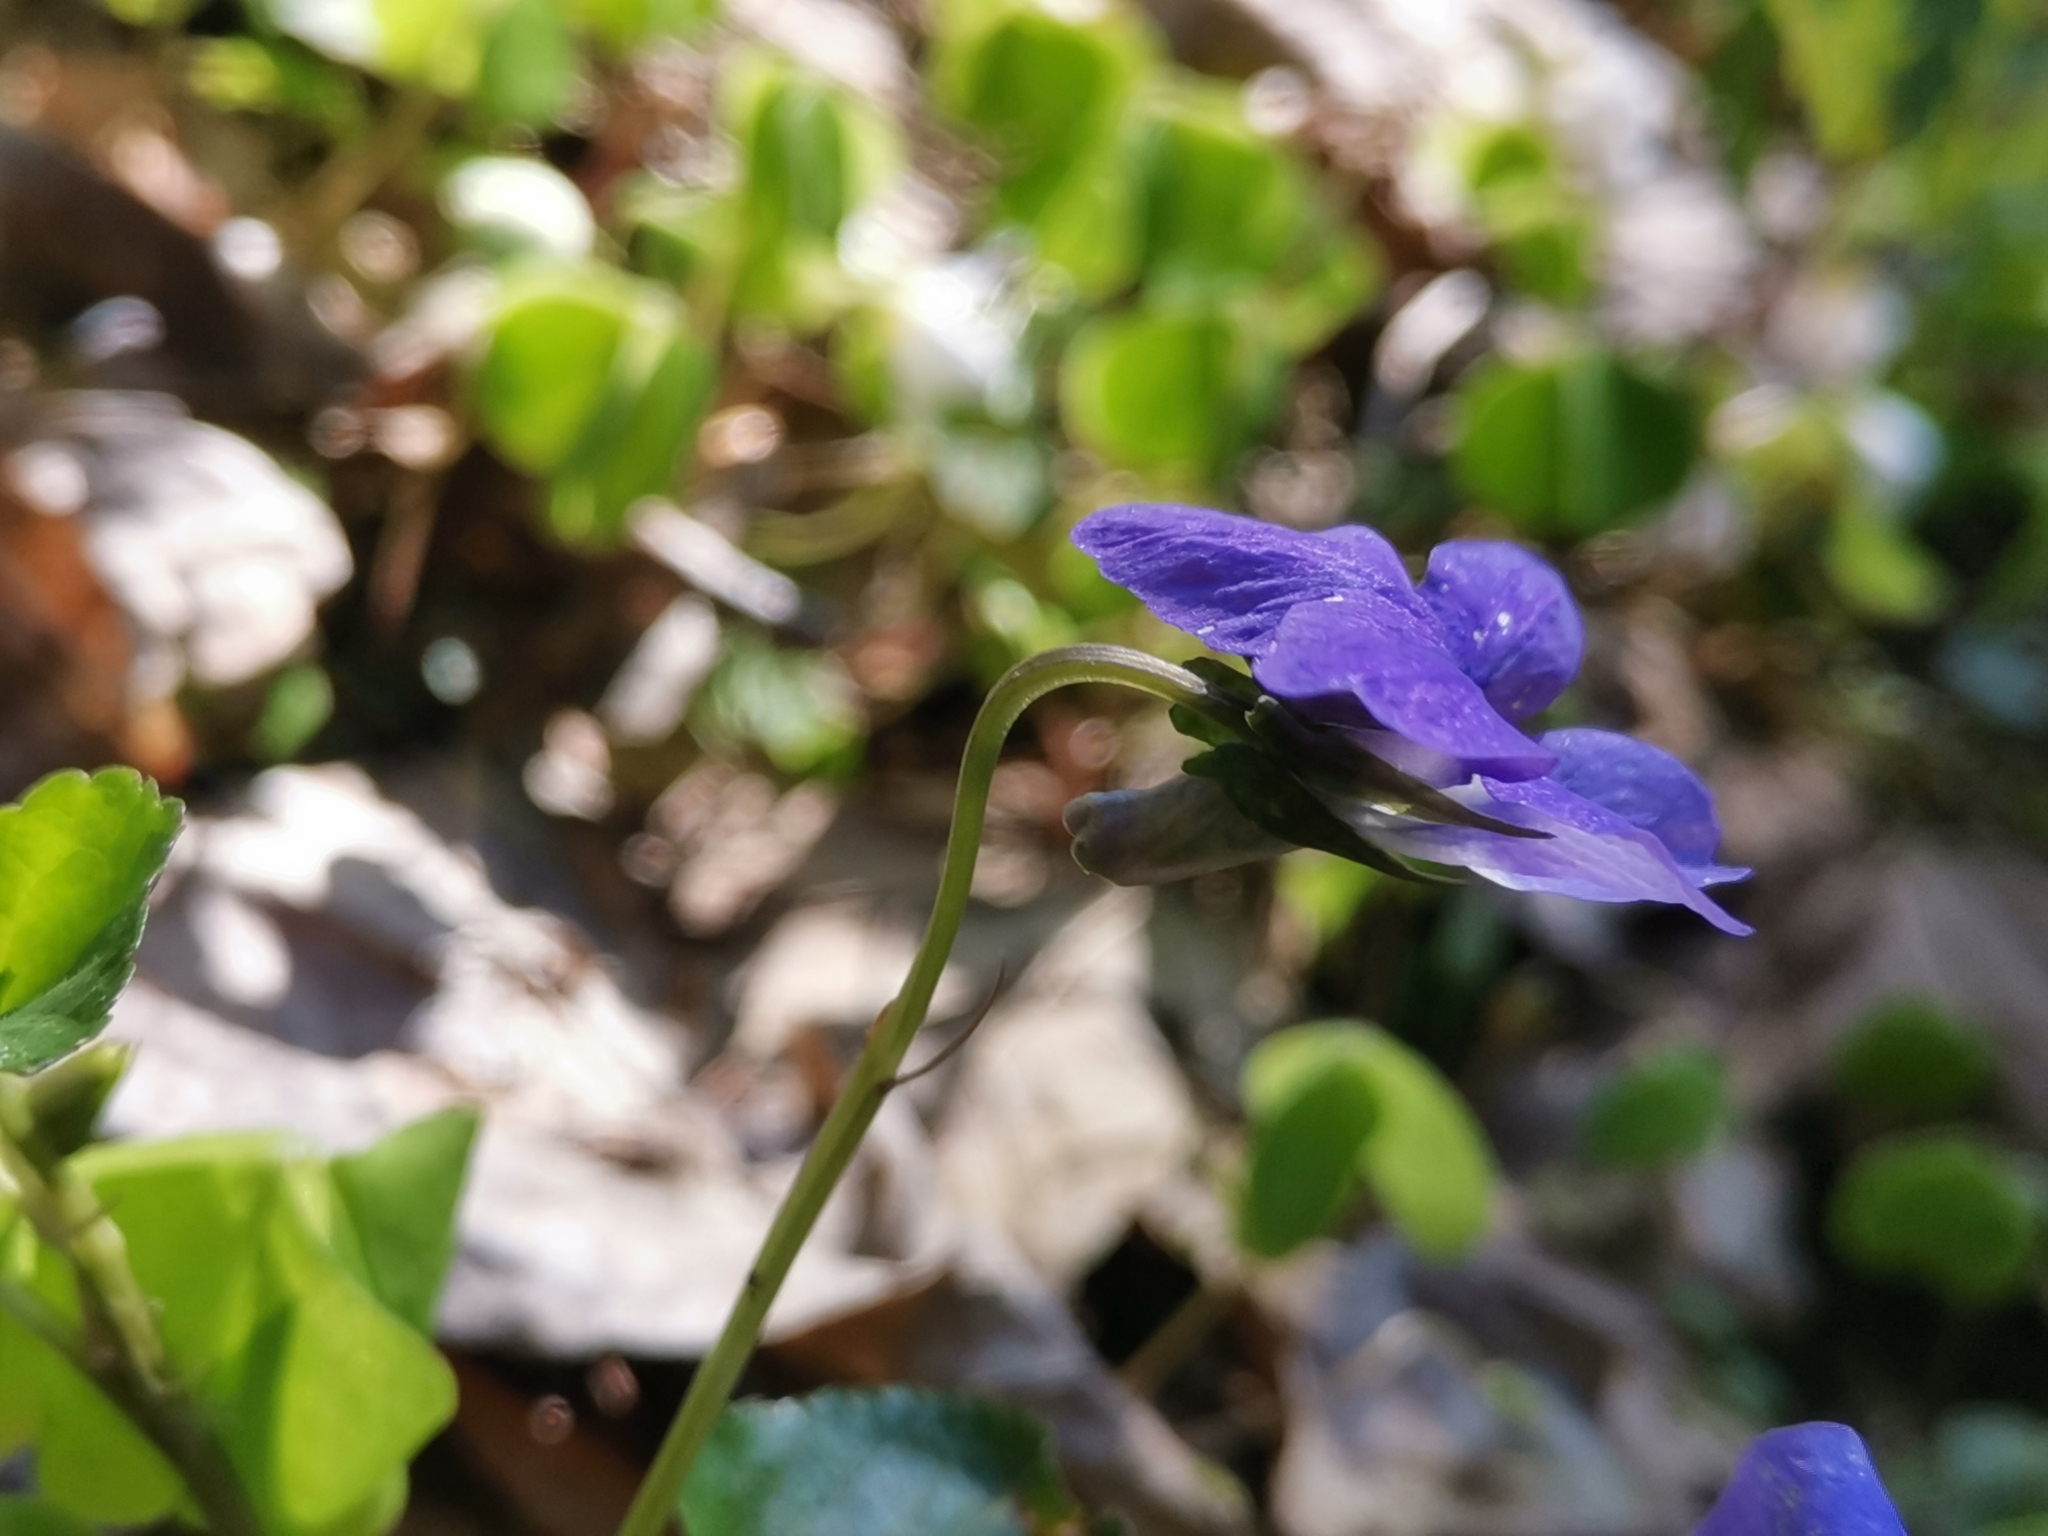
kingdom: Plantae
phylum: Tracheophyta
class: Magnoliopsida
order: Malpighiales
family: Violaceae
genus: Viola
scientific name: Viola riviniana
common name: Common dog-violet
